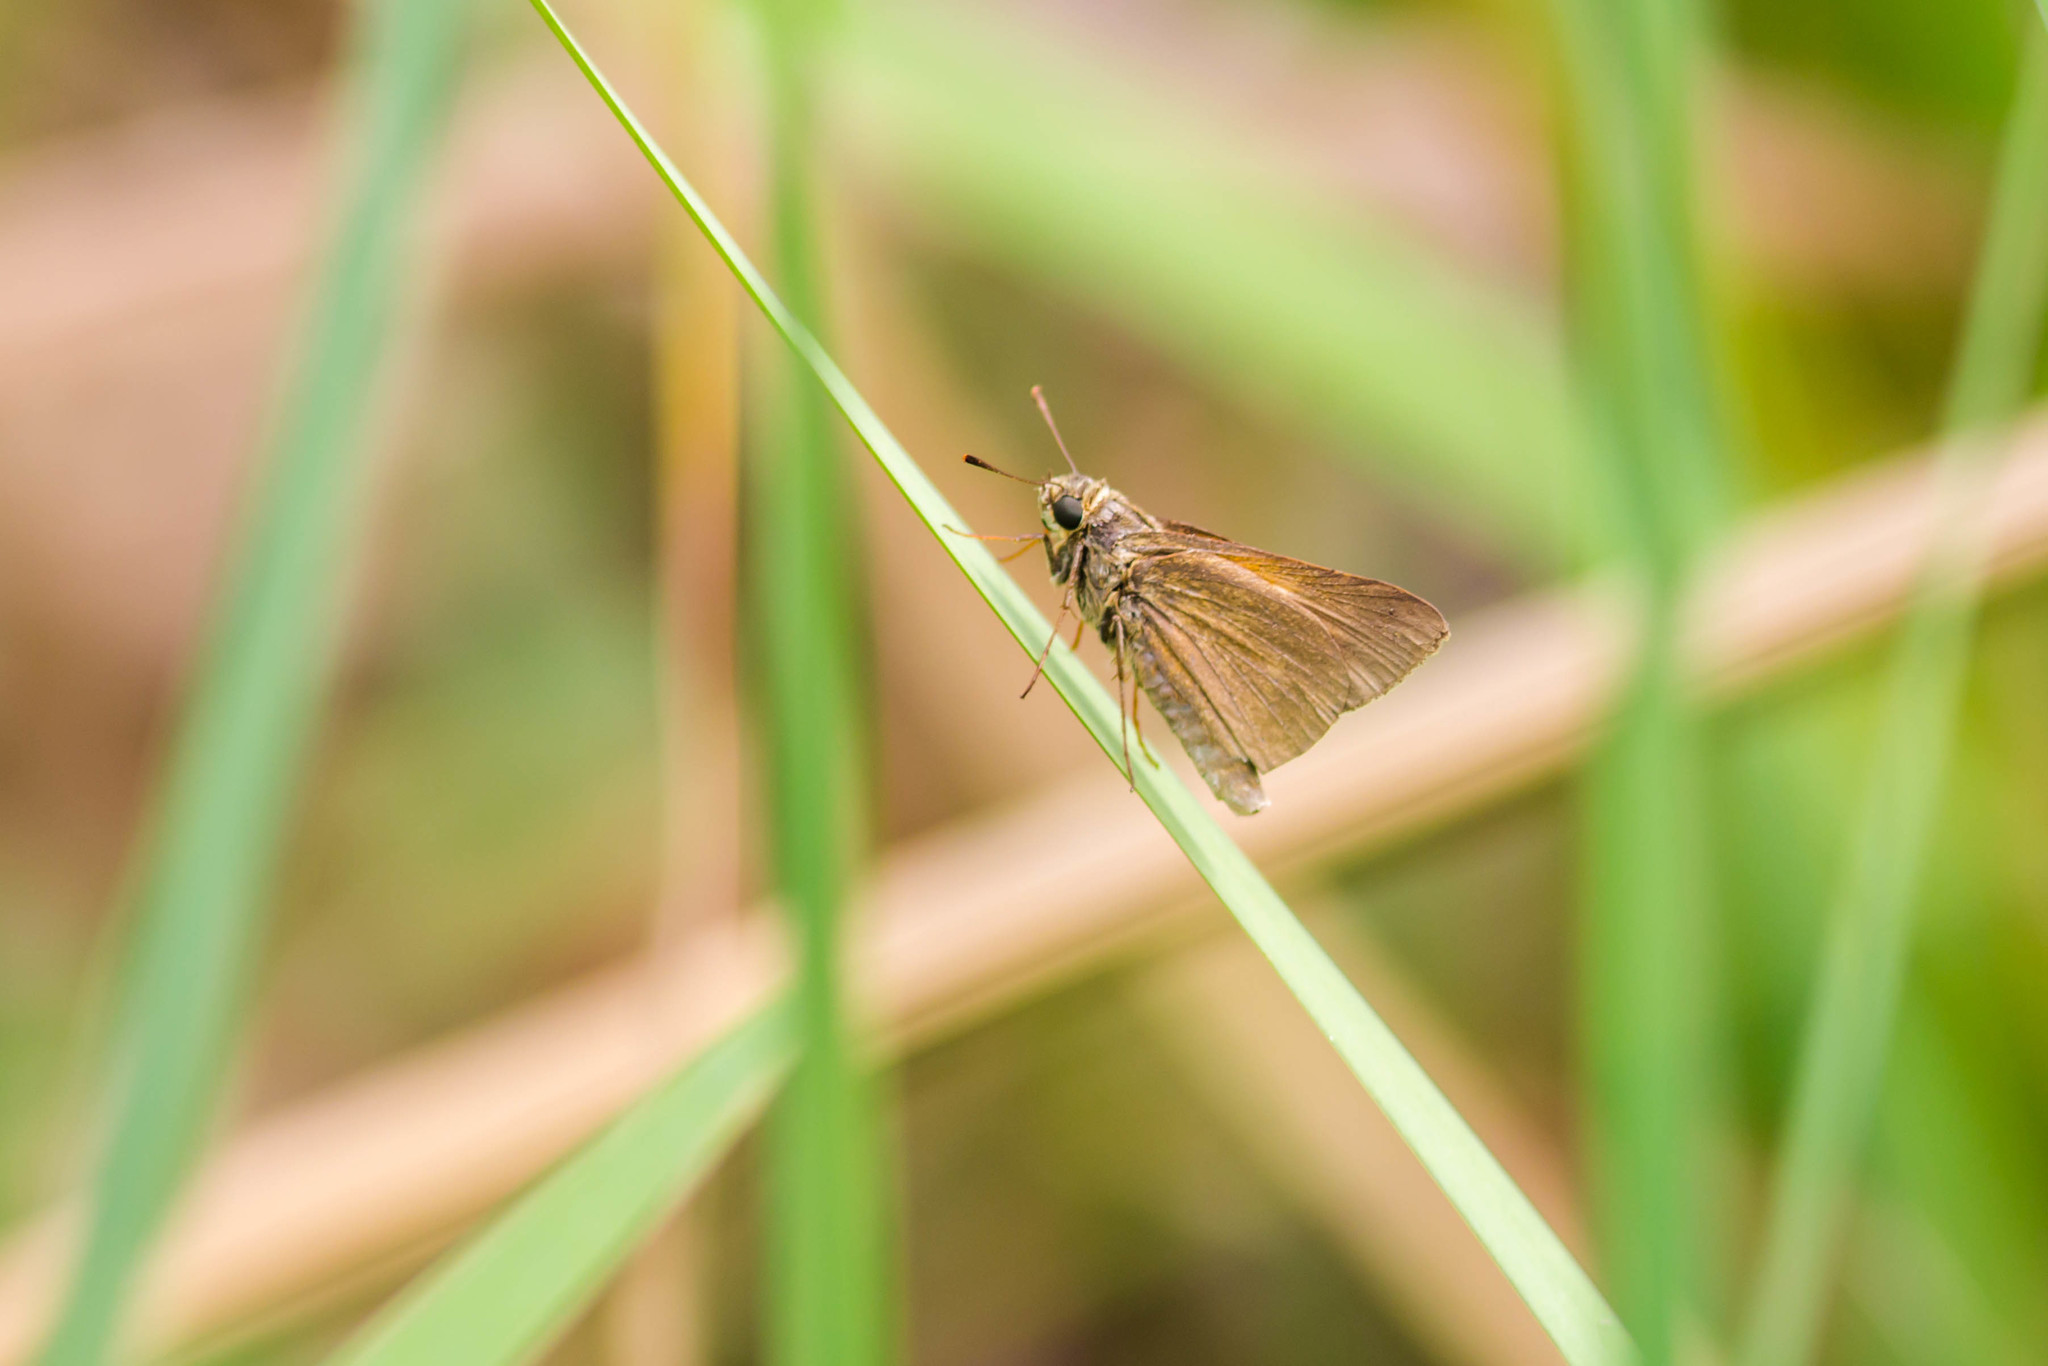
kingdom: Animalia
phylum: Arthropoda
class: Insecta
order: Lepidoptera
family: Hesperiidae
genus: Euphyes
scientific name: Euphyes vestris
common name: Dun skipper
